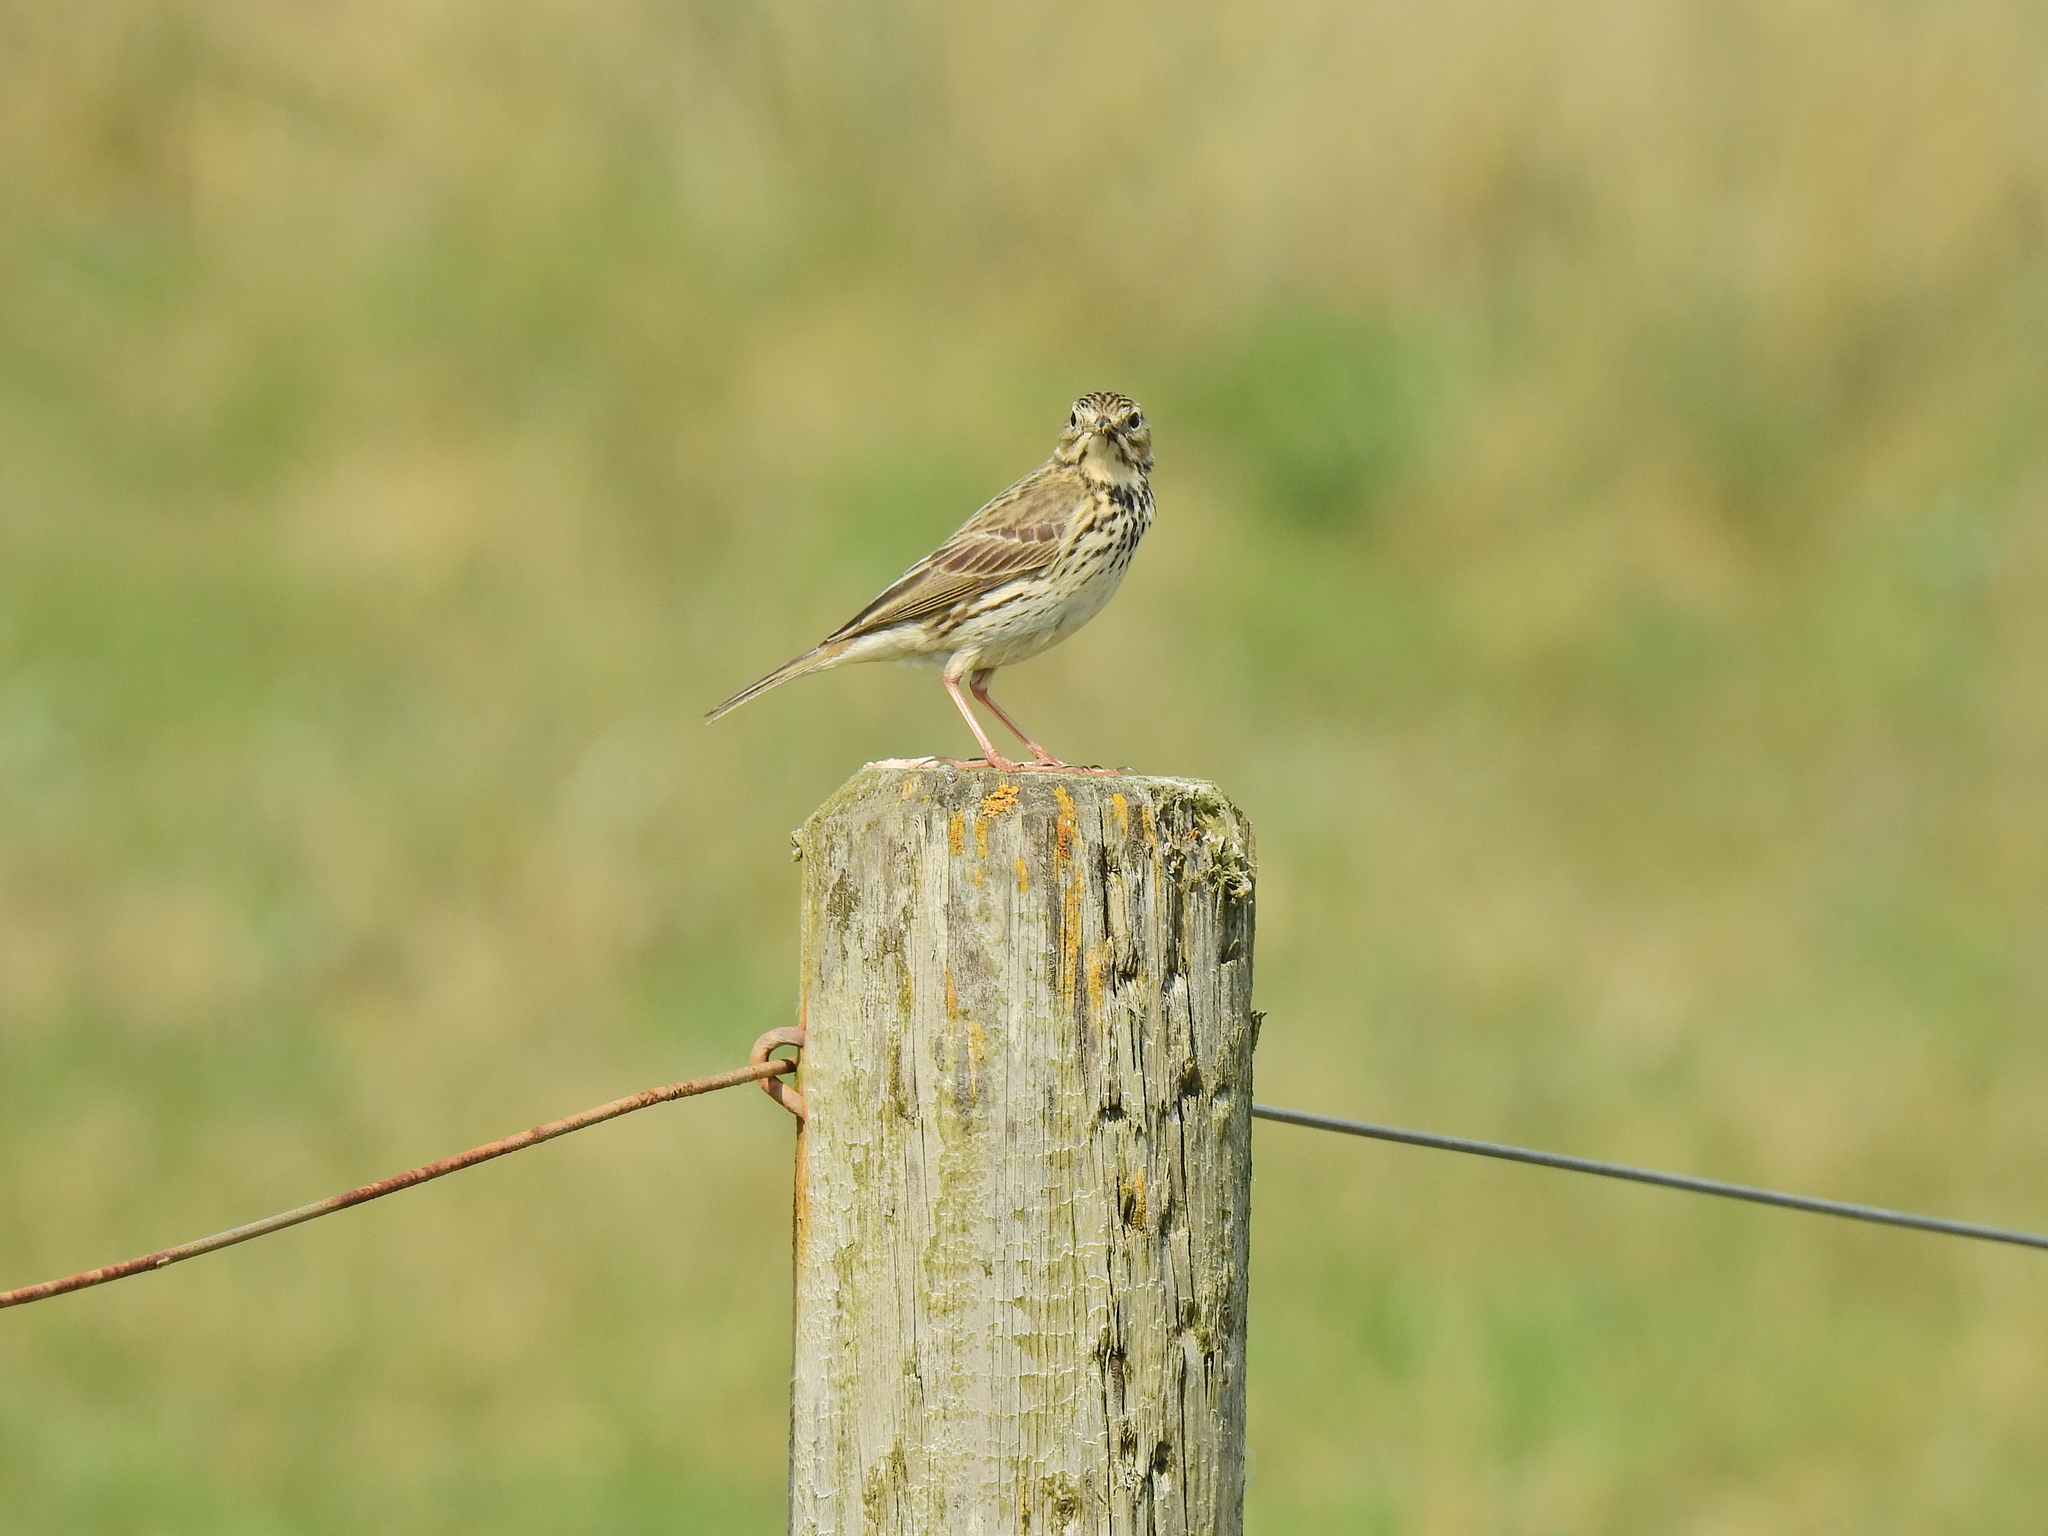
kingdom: Animalia
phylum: Chordata
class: Aves
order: Passeriformes
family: Motacillidae
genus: Anthus
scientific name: Anthus pratensis
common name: Meadow pipit
